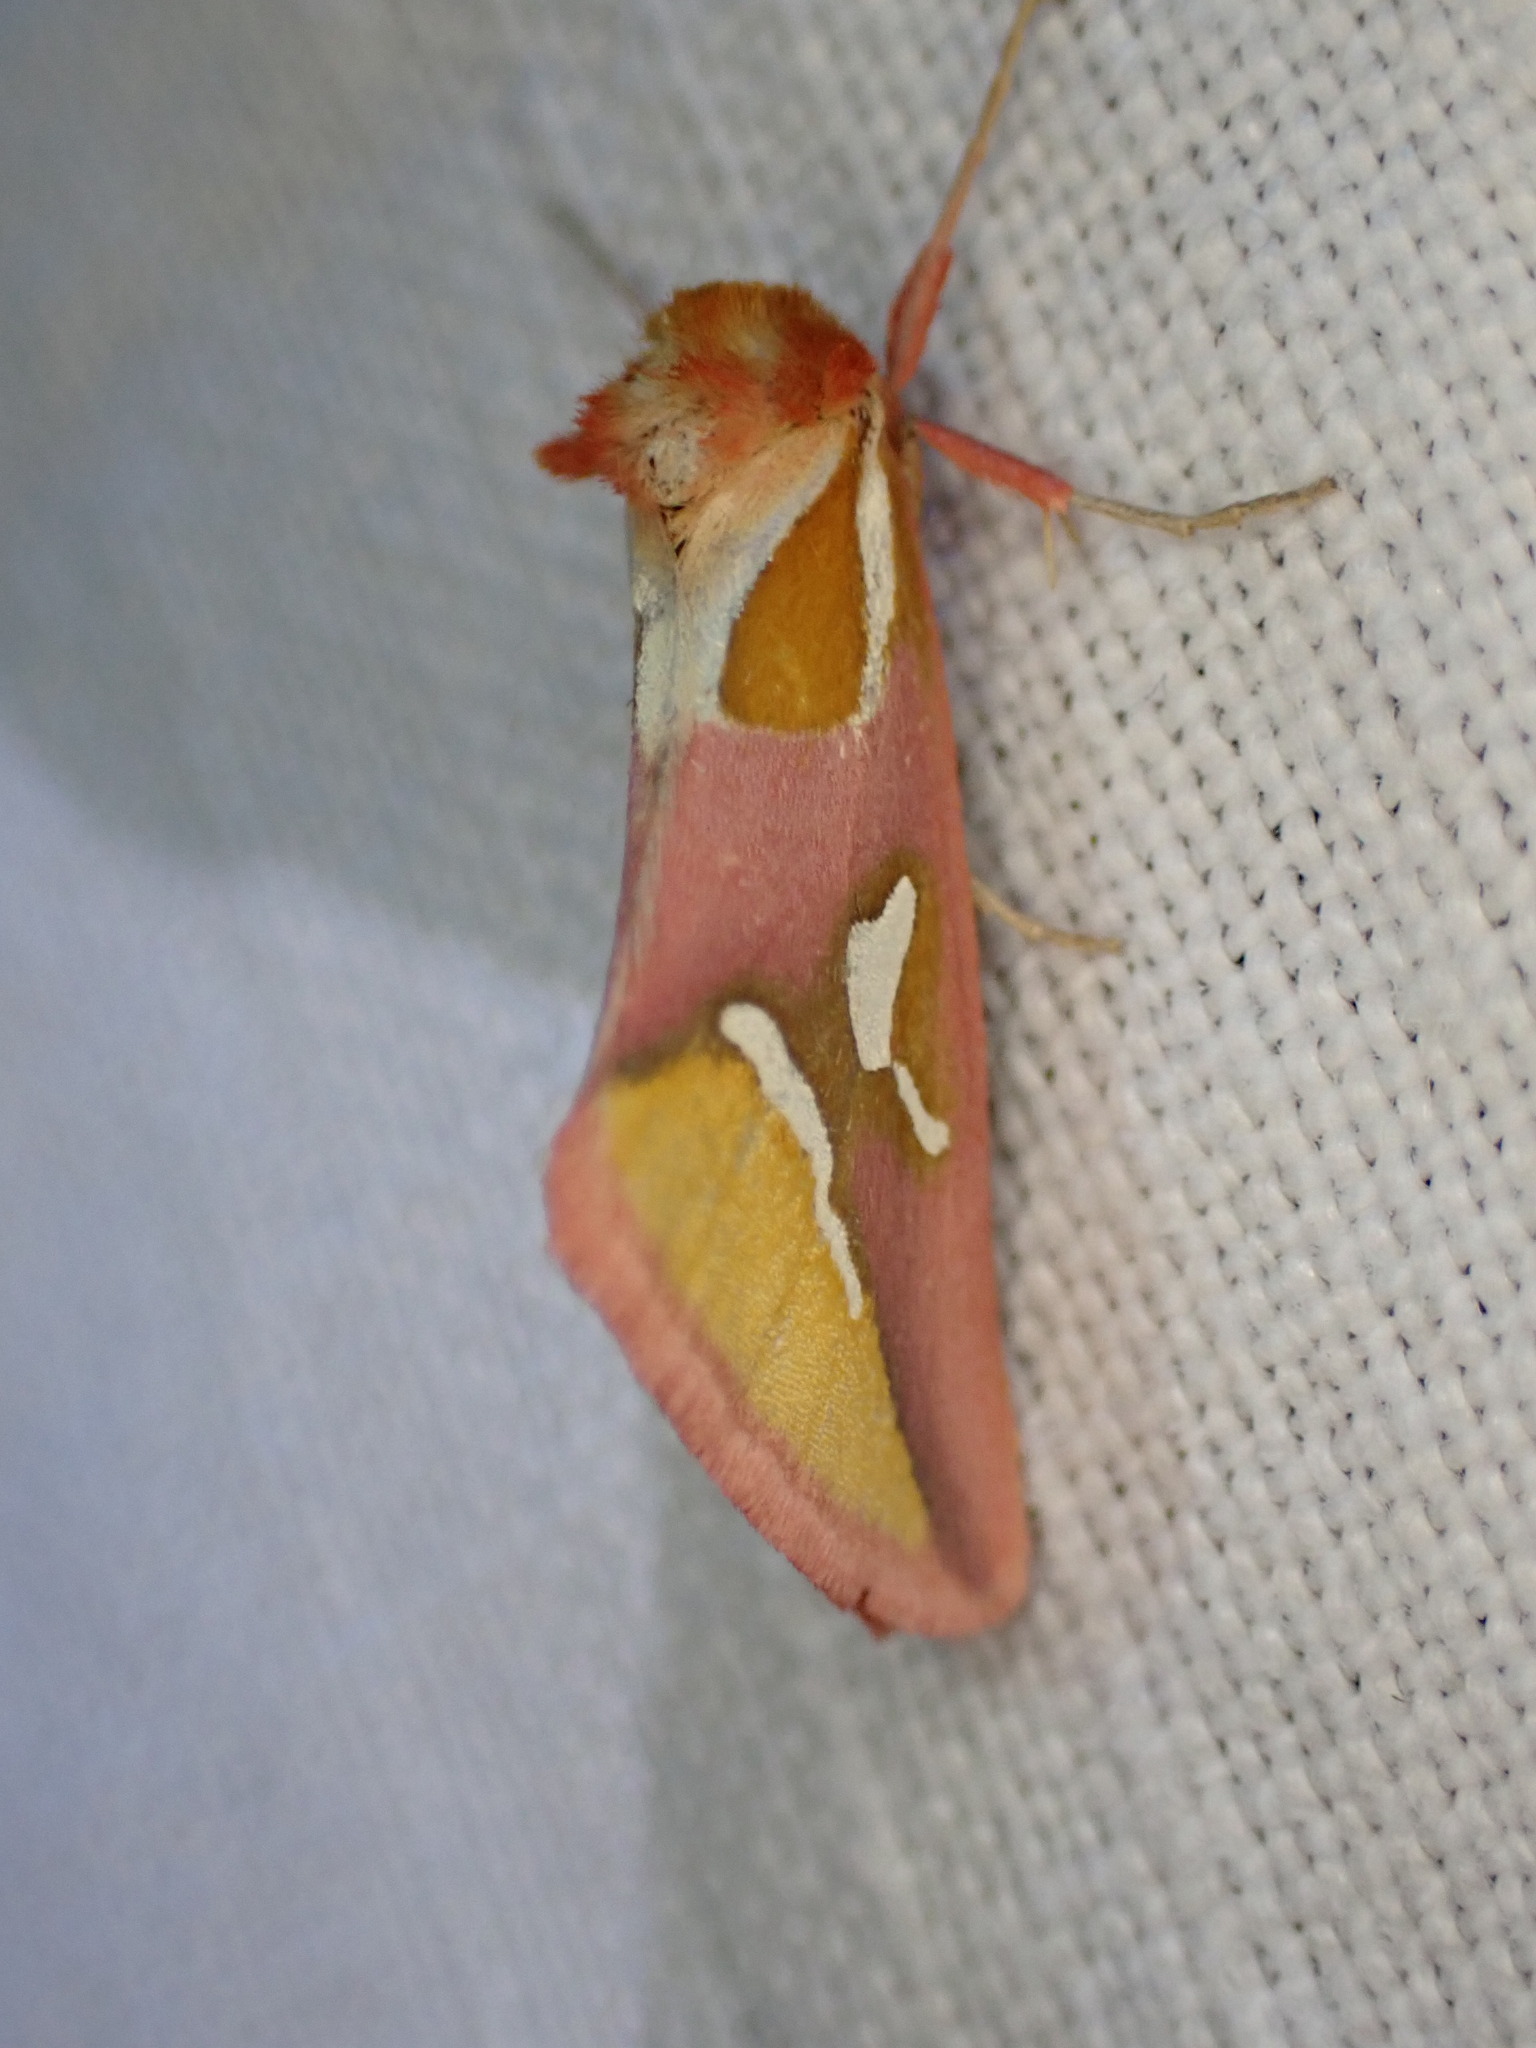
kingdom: Animalia
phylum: Arthropoda
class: Insecta
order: Lepidoptera
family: Cimeliidae
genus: Axia
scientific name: Axia margarita
